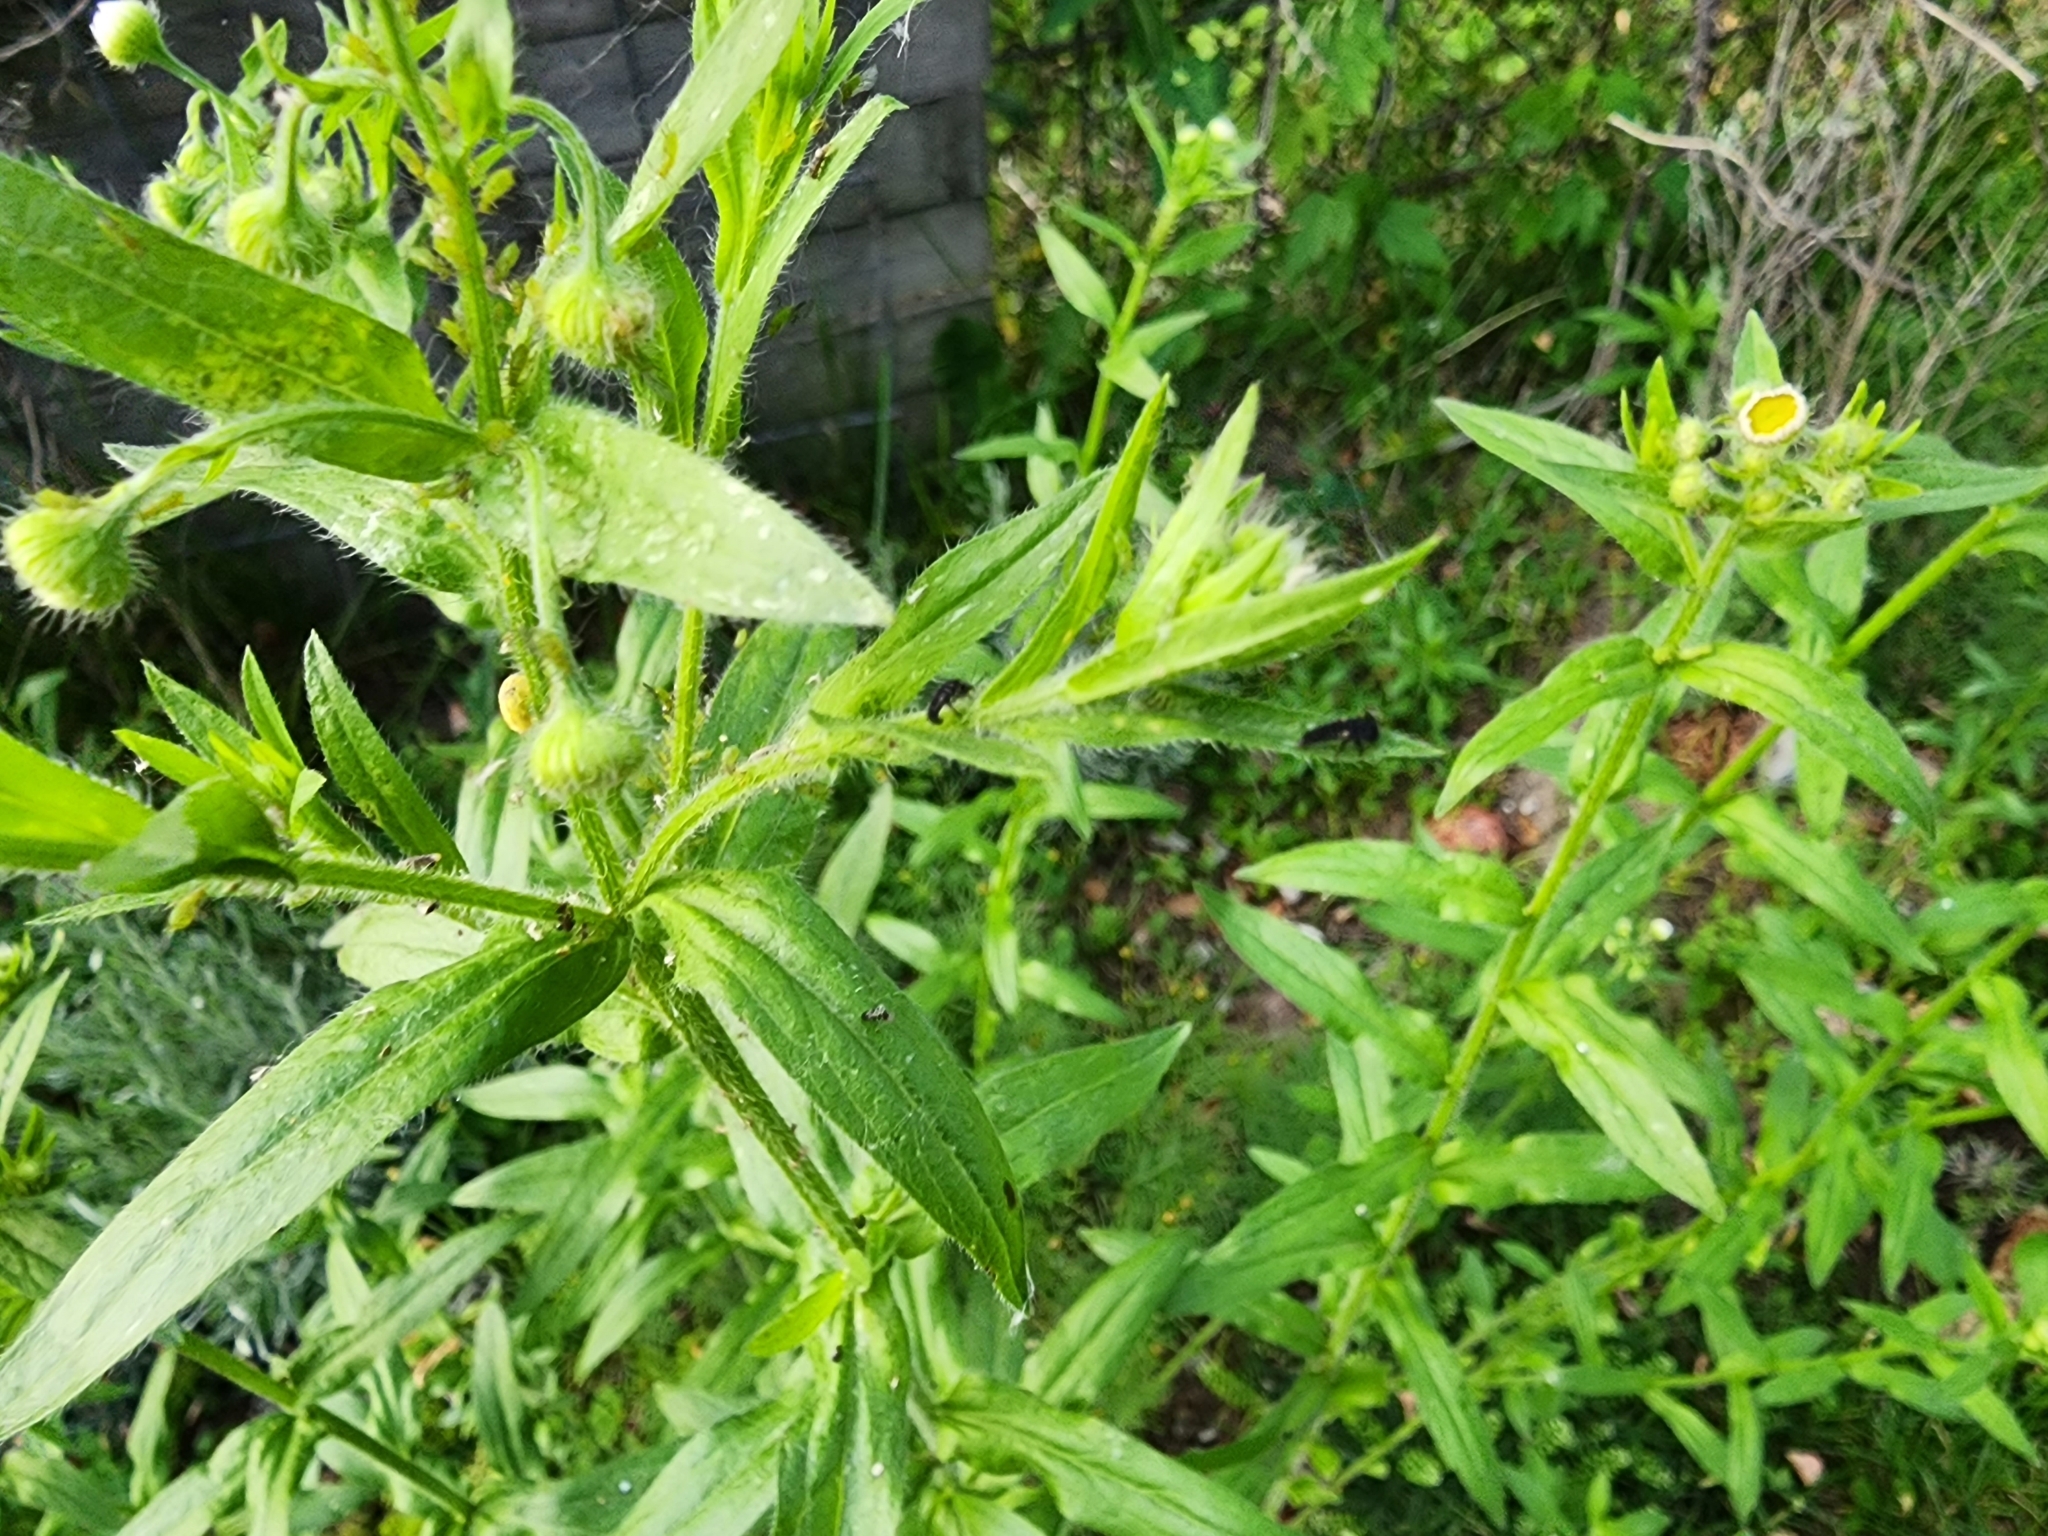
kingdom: Animalia
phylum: Arthropoda
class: Insecta
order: Coleoptera
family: Coccinellidae
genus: Harmonia
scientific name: Harmonia axyridis
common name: Harlequin ladybird
